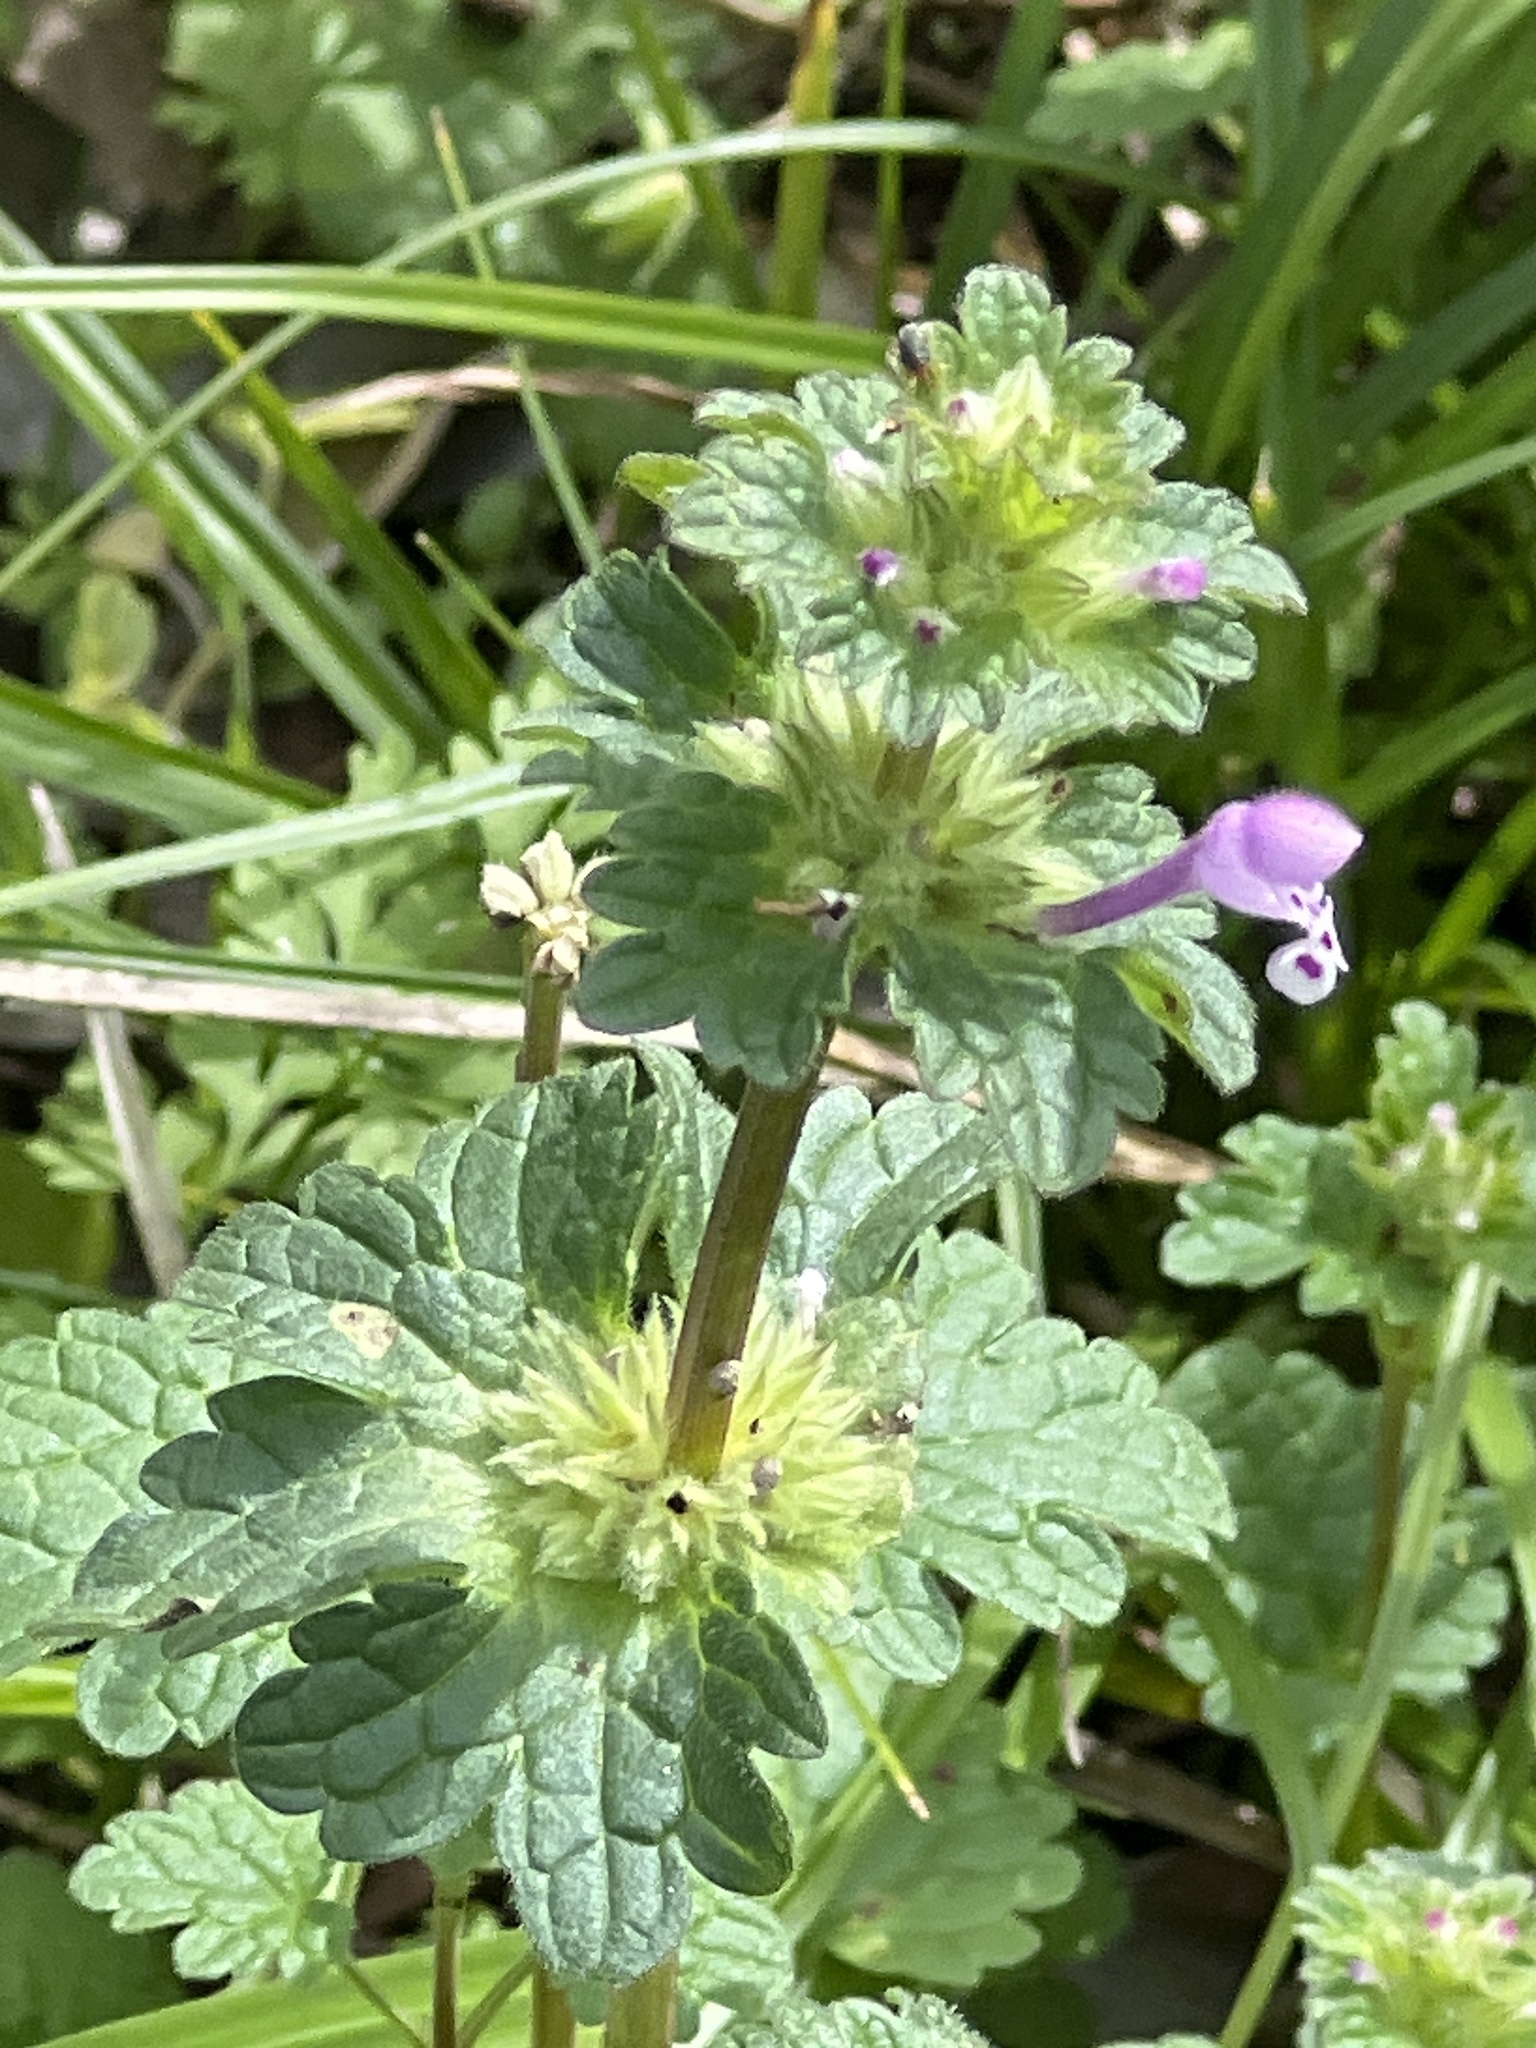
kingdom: Plantae
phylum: Tracheophyta
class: Magnoliopsida
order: Lamiales
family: Lamiaceae
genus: Lamium
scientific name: Lamium amplexicaule
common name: Henbit dead-nettle
